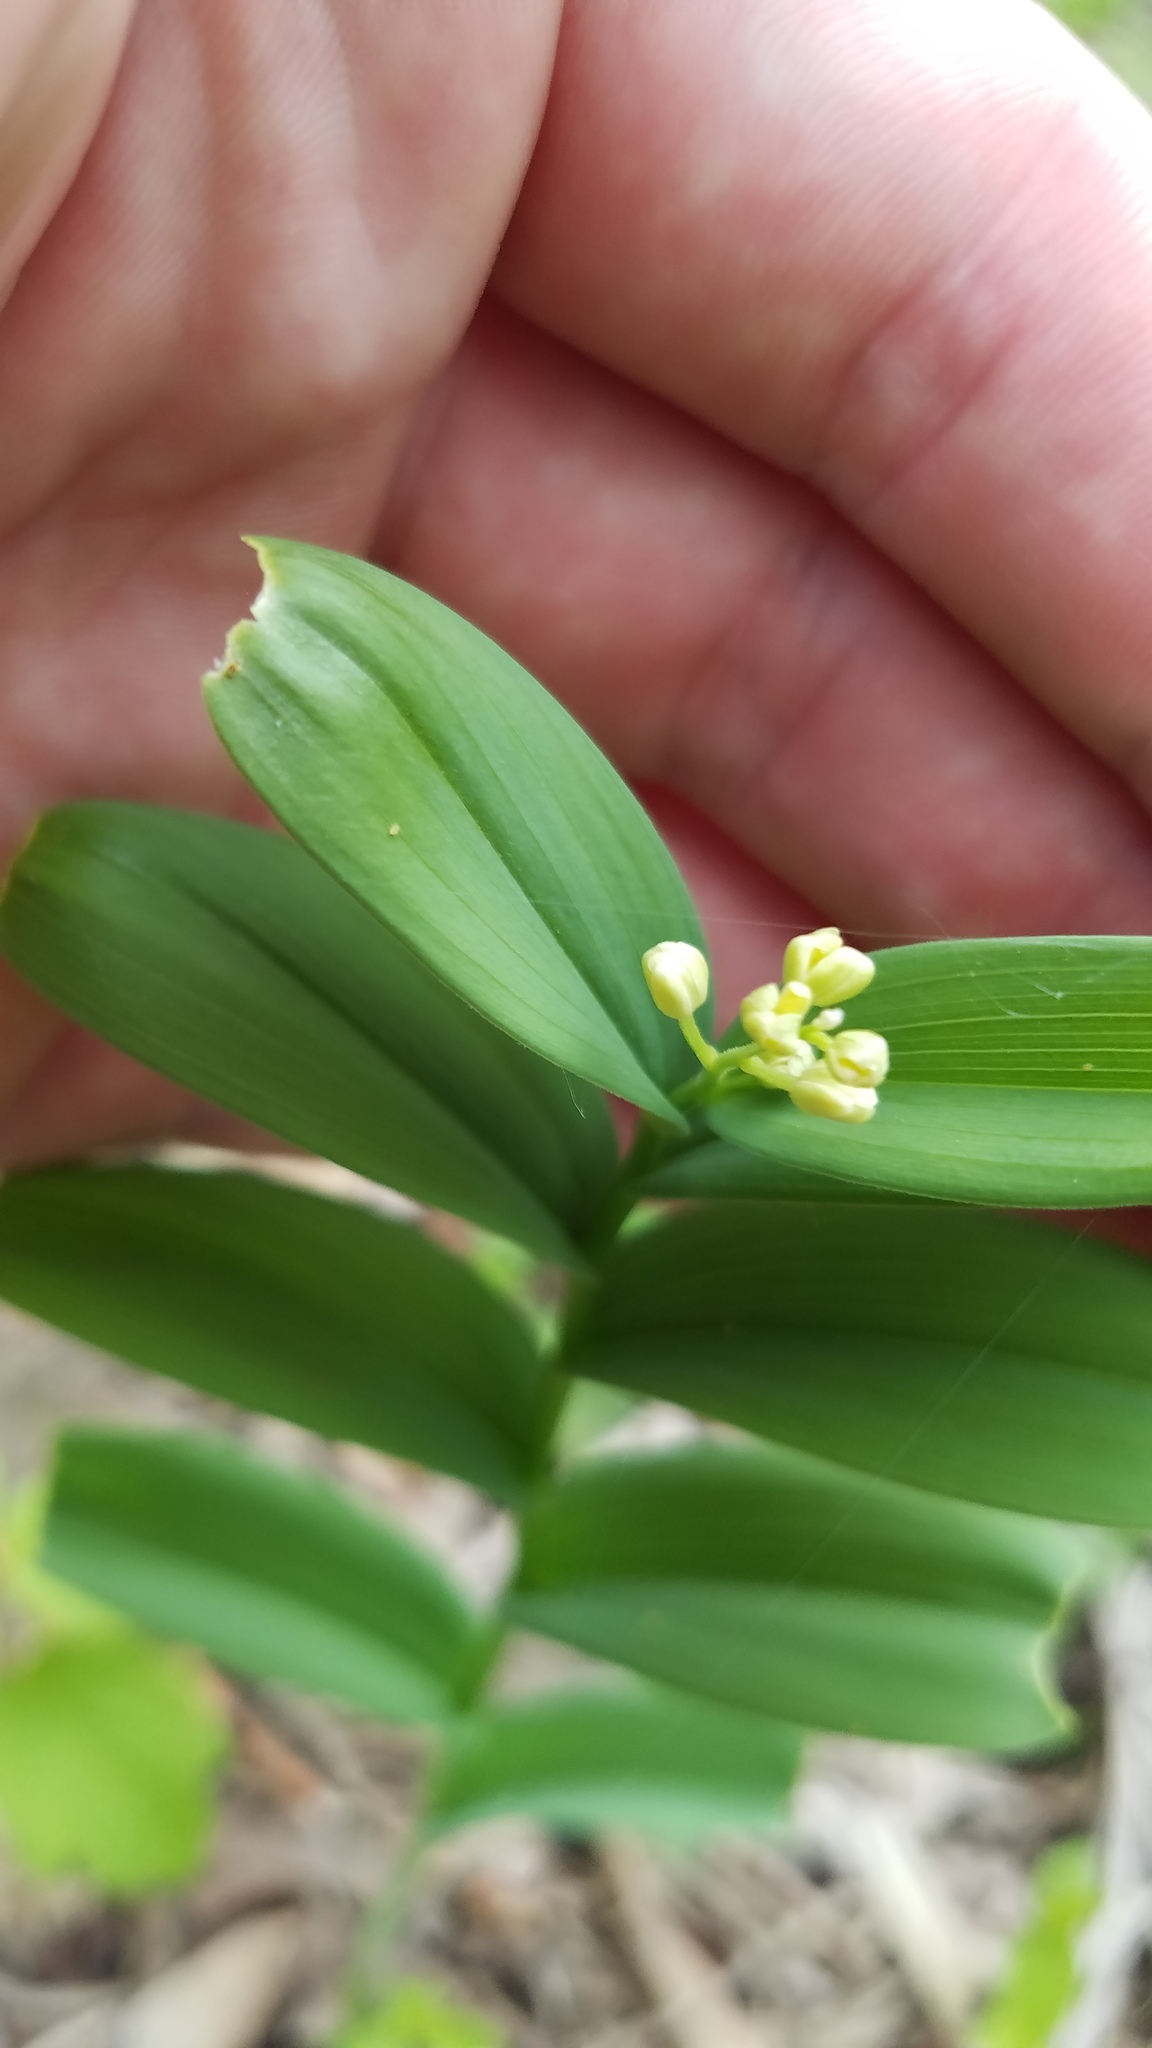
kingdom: Plantae
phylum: Tracheophyta
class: Liliopsida
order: Asparagales
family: Asparagaceae
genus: Maianthemum
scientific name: Maianthemum stellatum
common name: Little false solomon's seal
